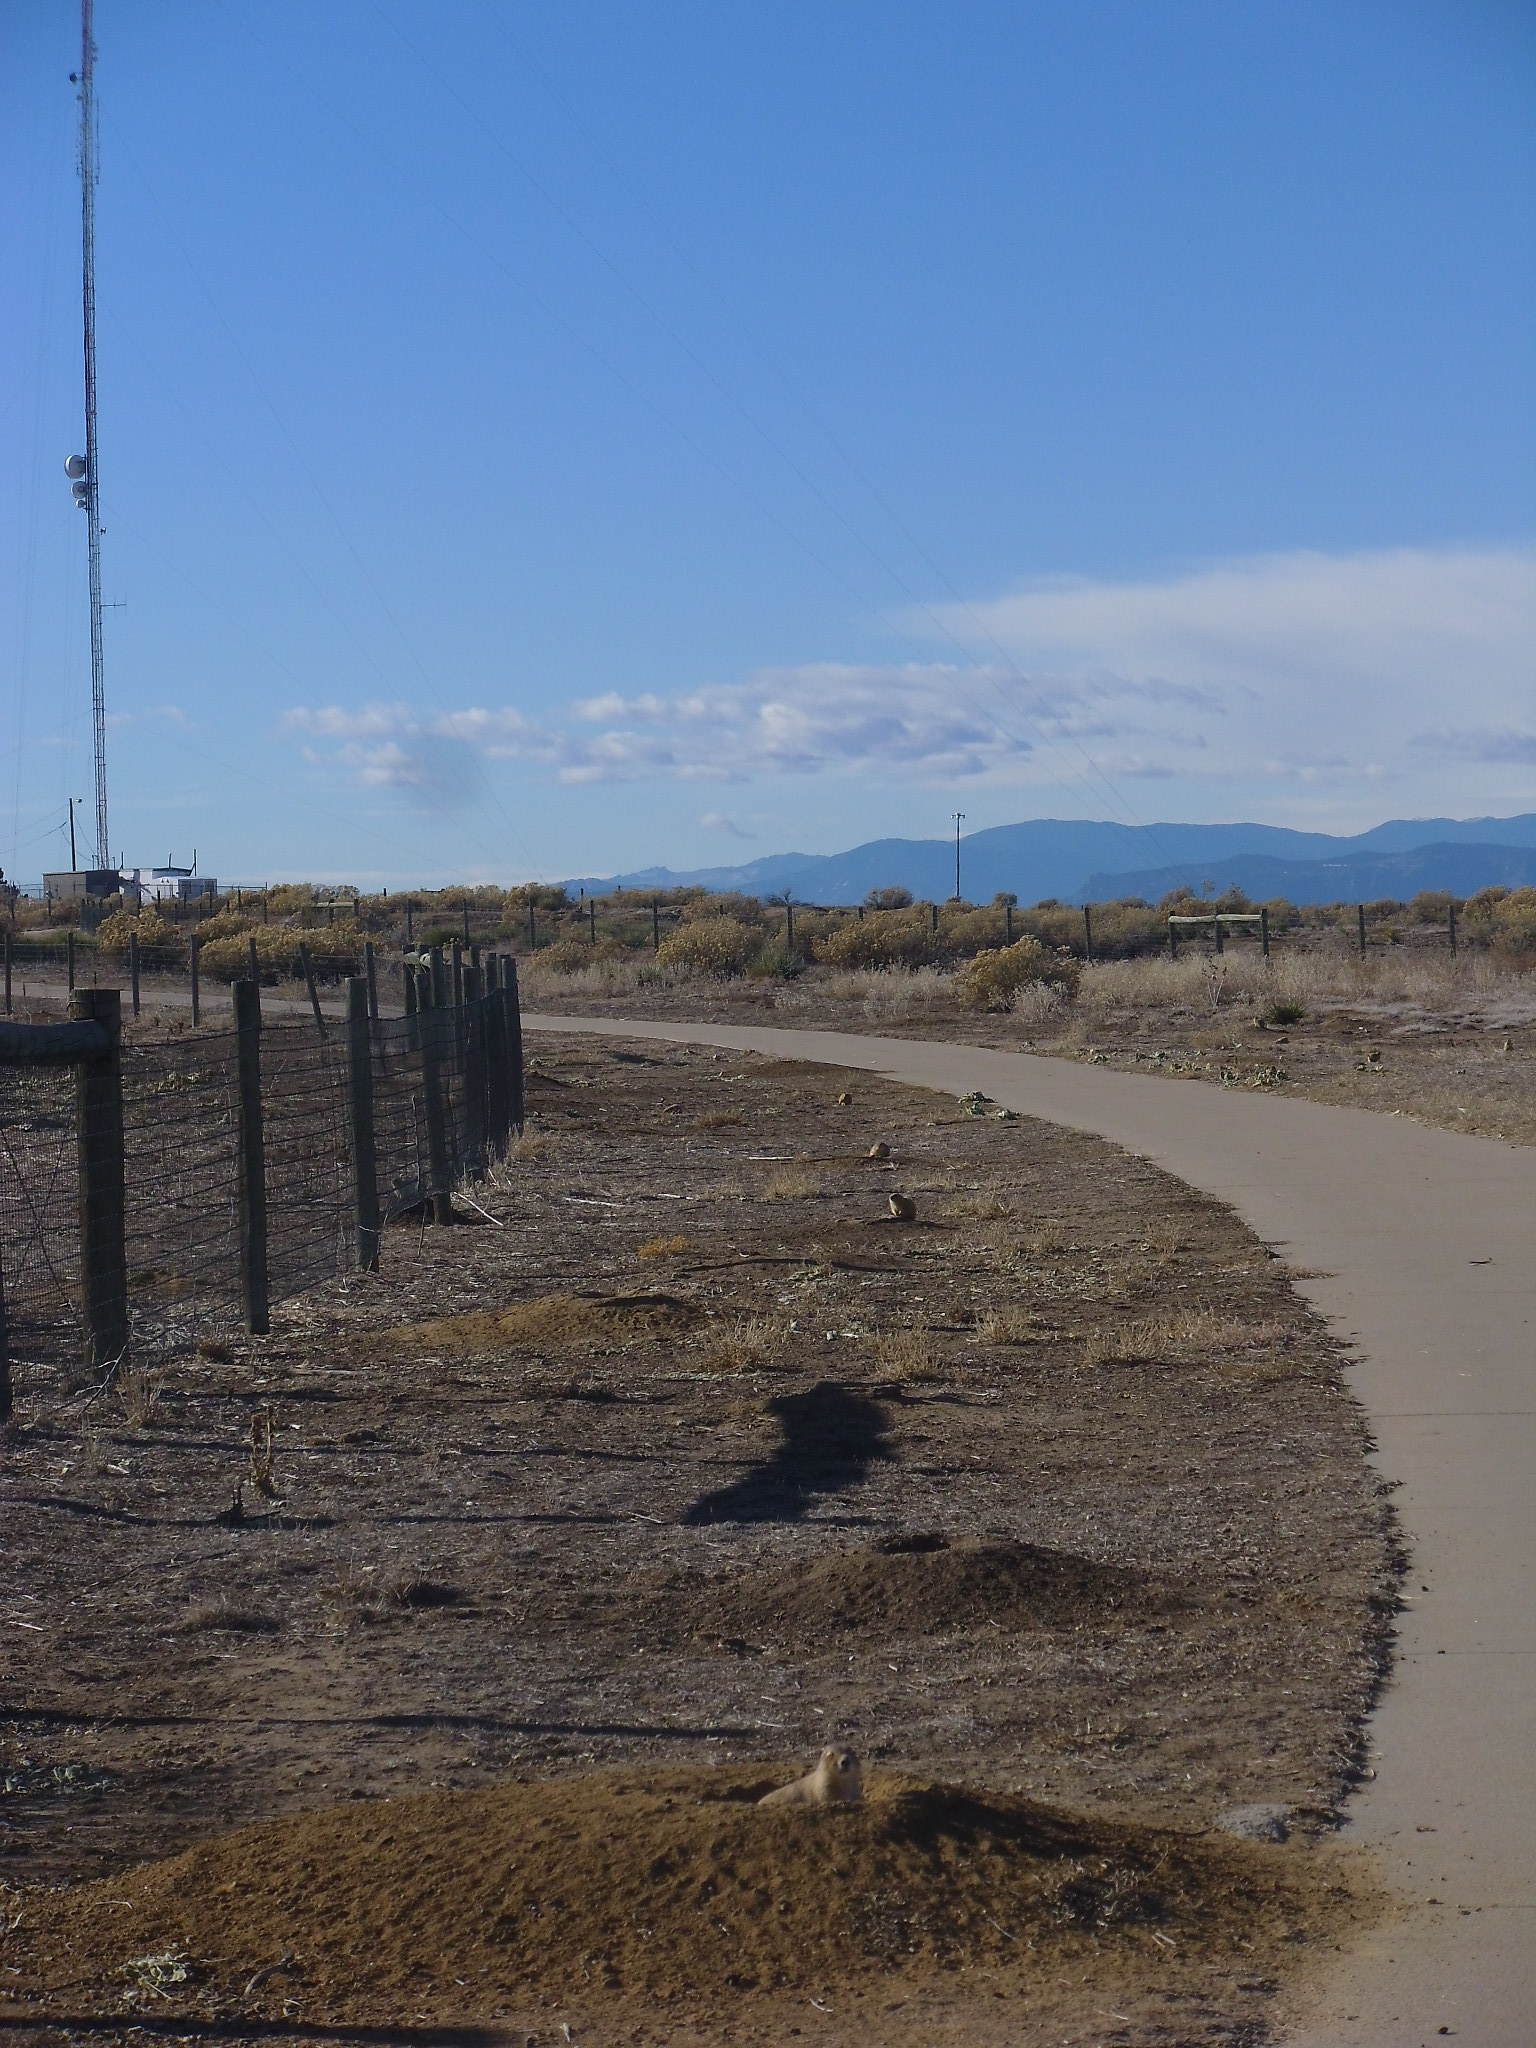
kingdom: Animalia
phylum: Chordata
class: Mammalia
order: Rodentia
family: Sciuridae
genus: Cynomys
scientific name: Cynomys ludovicianus
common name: Black-tailed prairie dog
